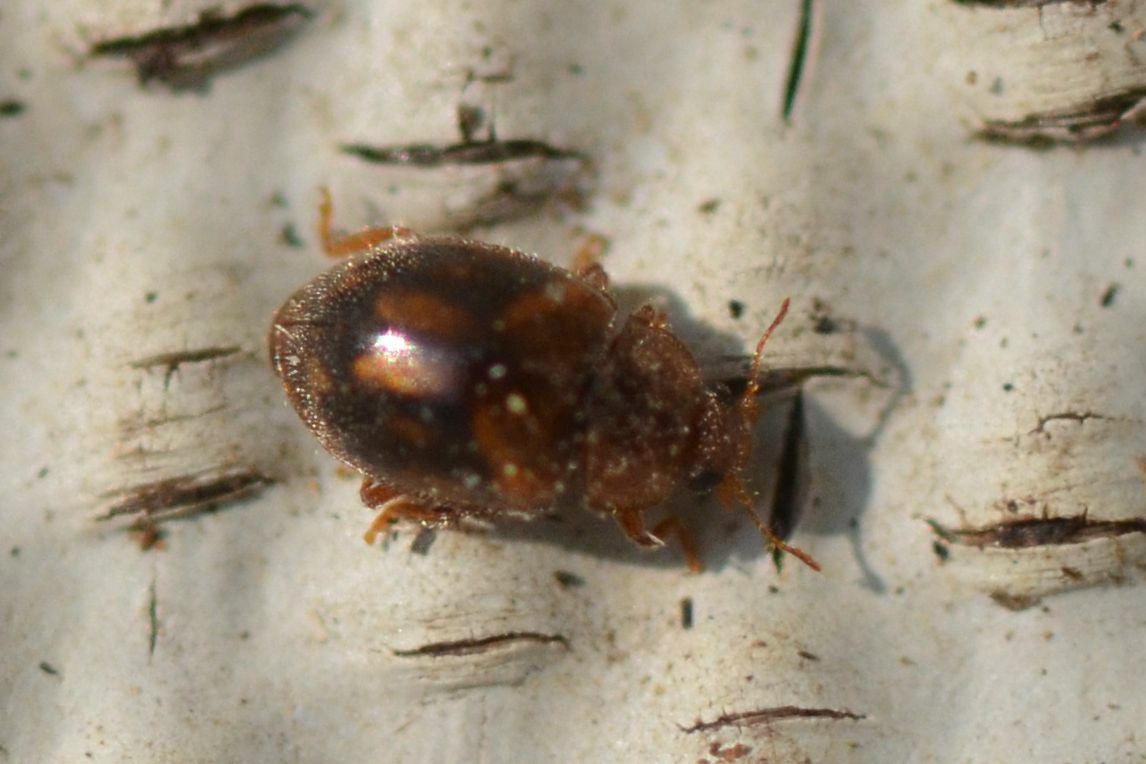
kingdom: Animalia
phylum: Arthropoda
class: Insecta
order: Coleoptera
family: Coccinellidae
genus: Rhyzobius
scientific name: Rhyzobius chrysomeloides
